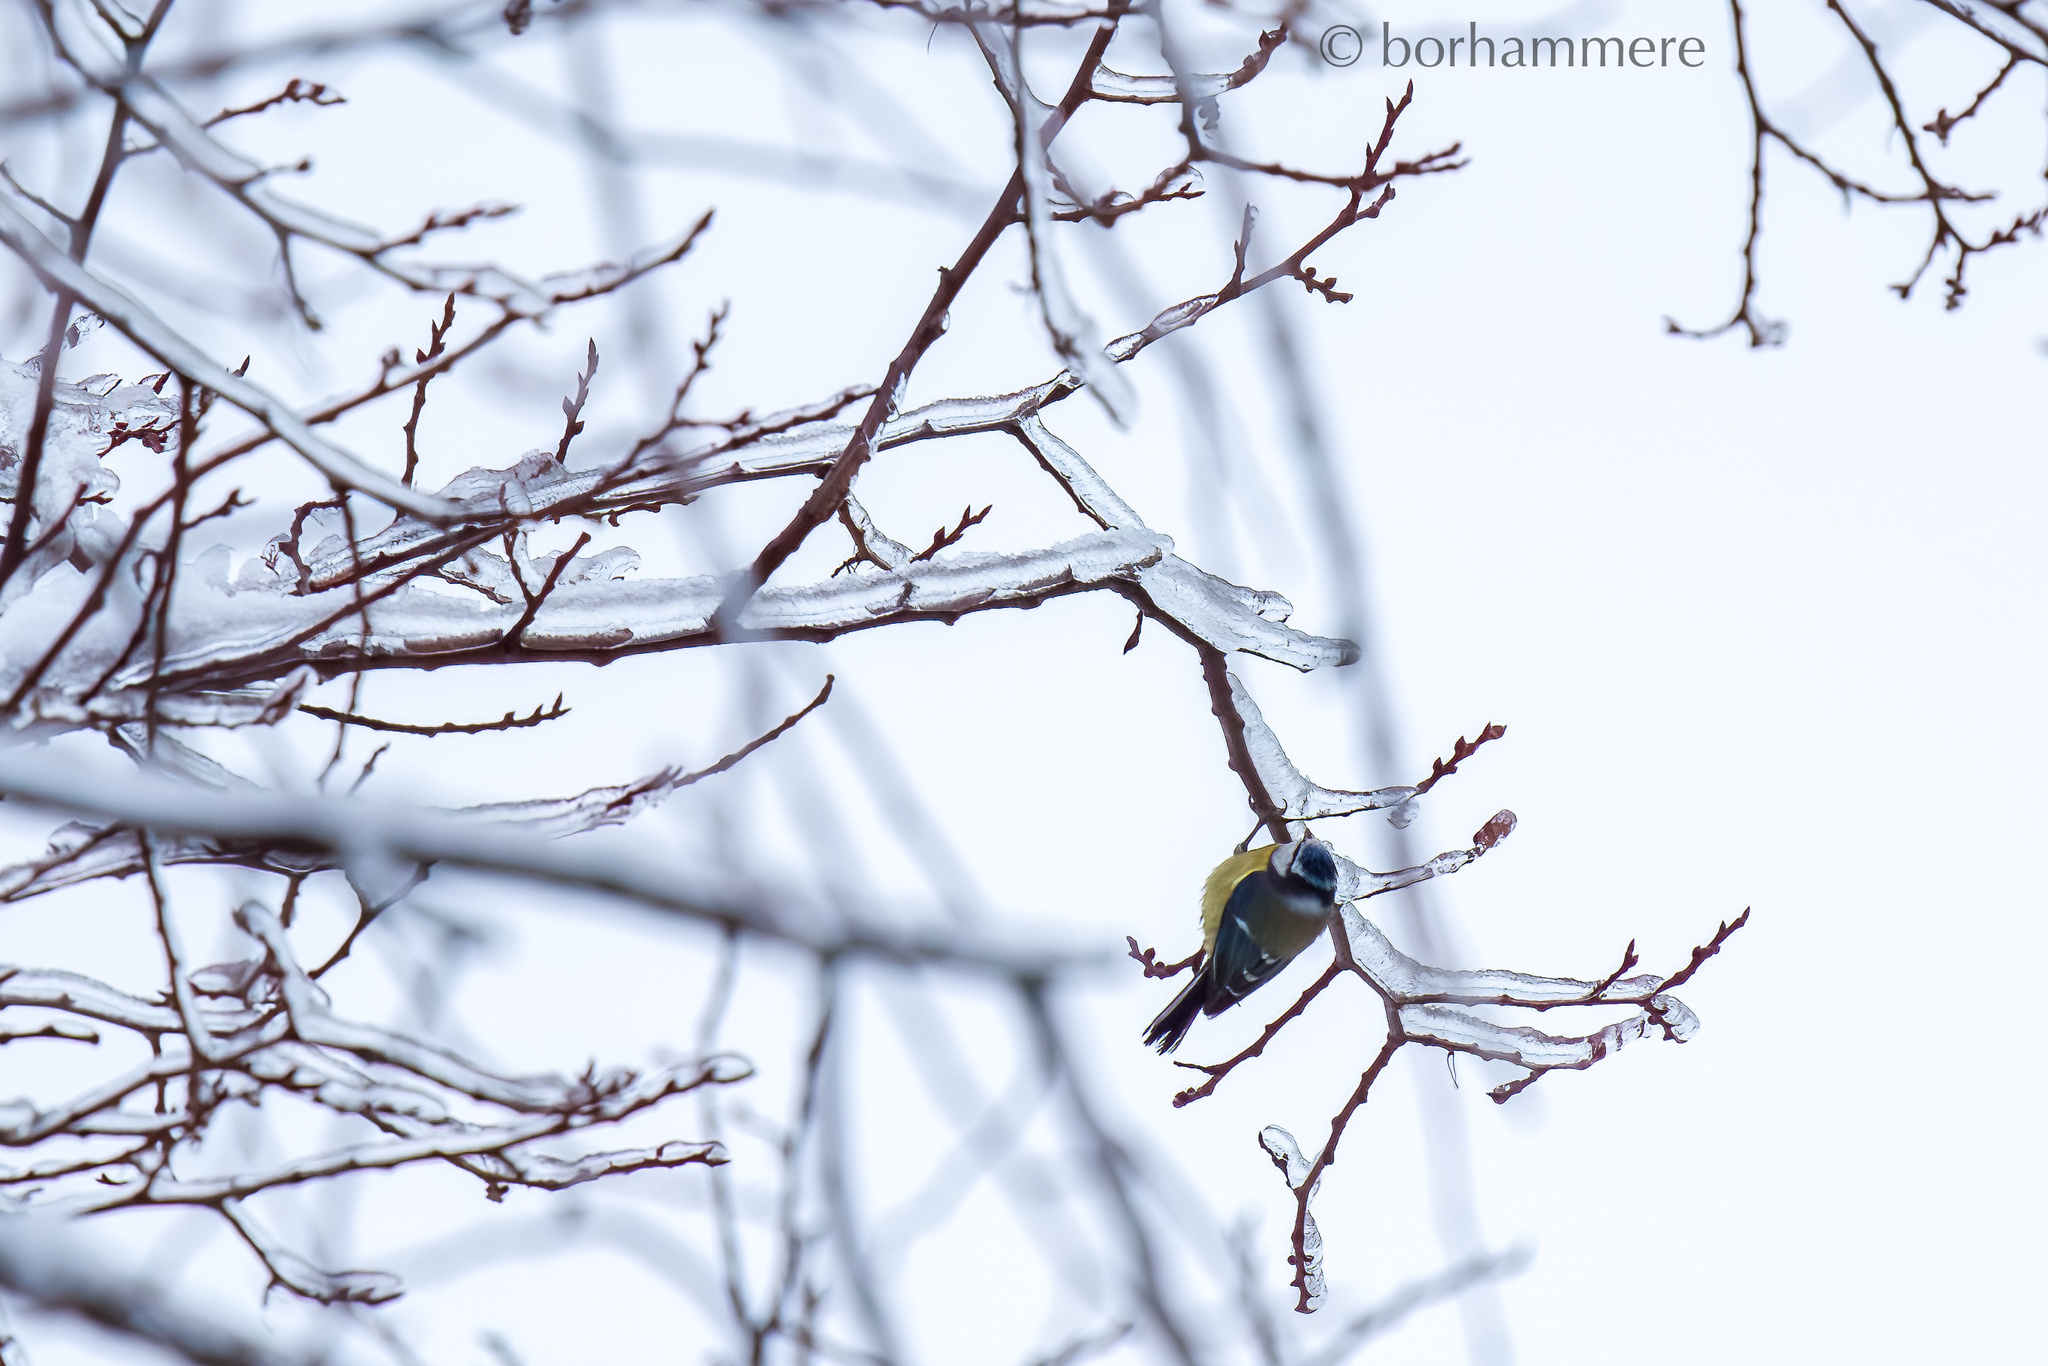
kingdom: Animalia
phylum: Chordata
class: Aves
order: Passeriformes
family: Paridae
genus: Cyanistes
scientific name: Cyanistes caeruleus
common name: Eurasian blue tit
